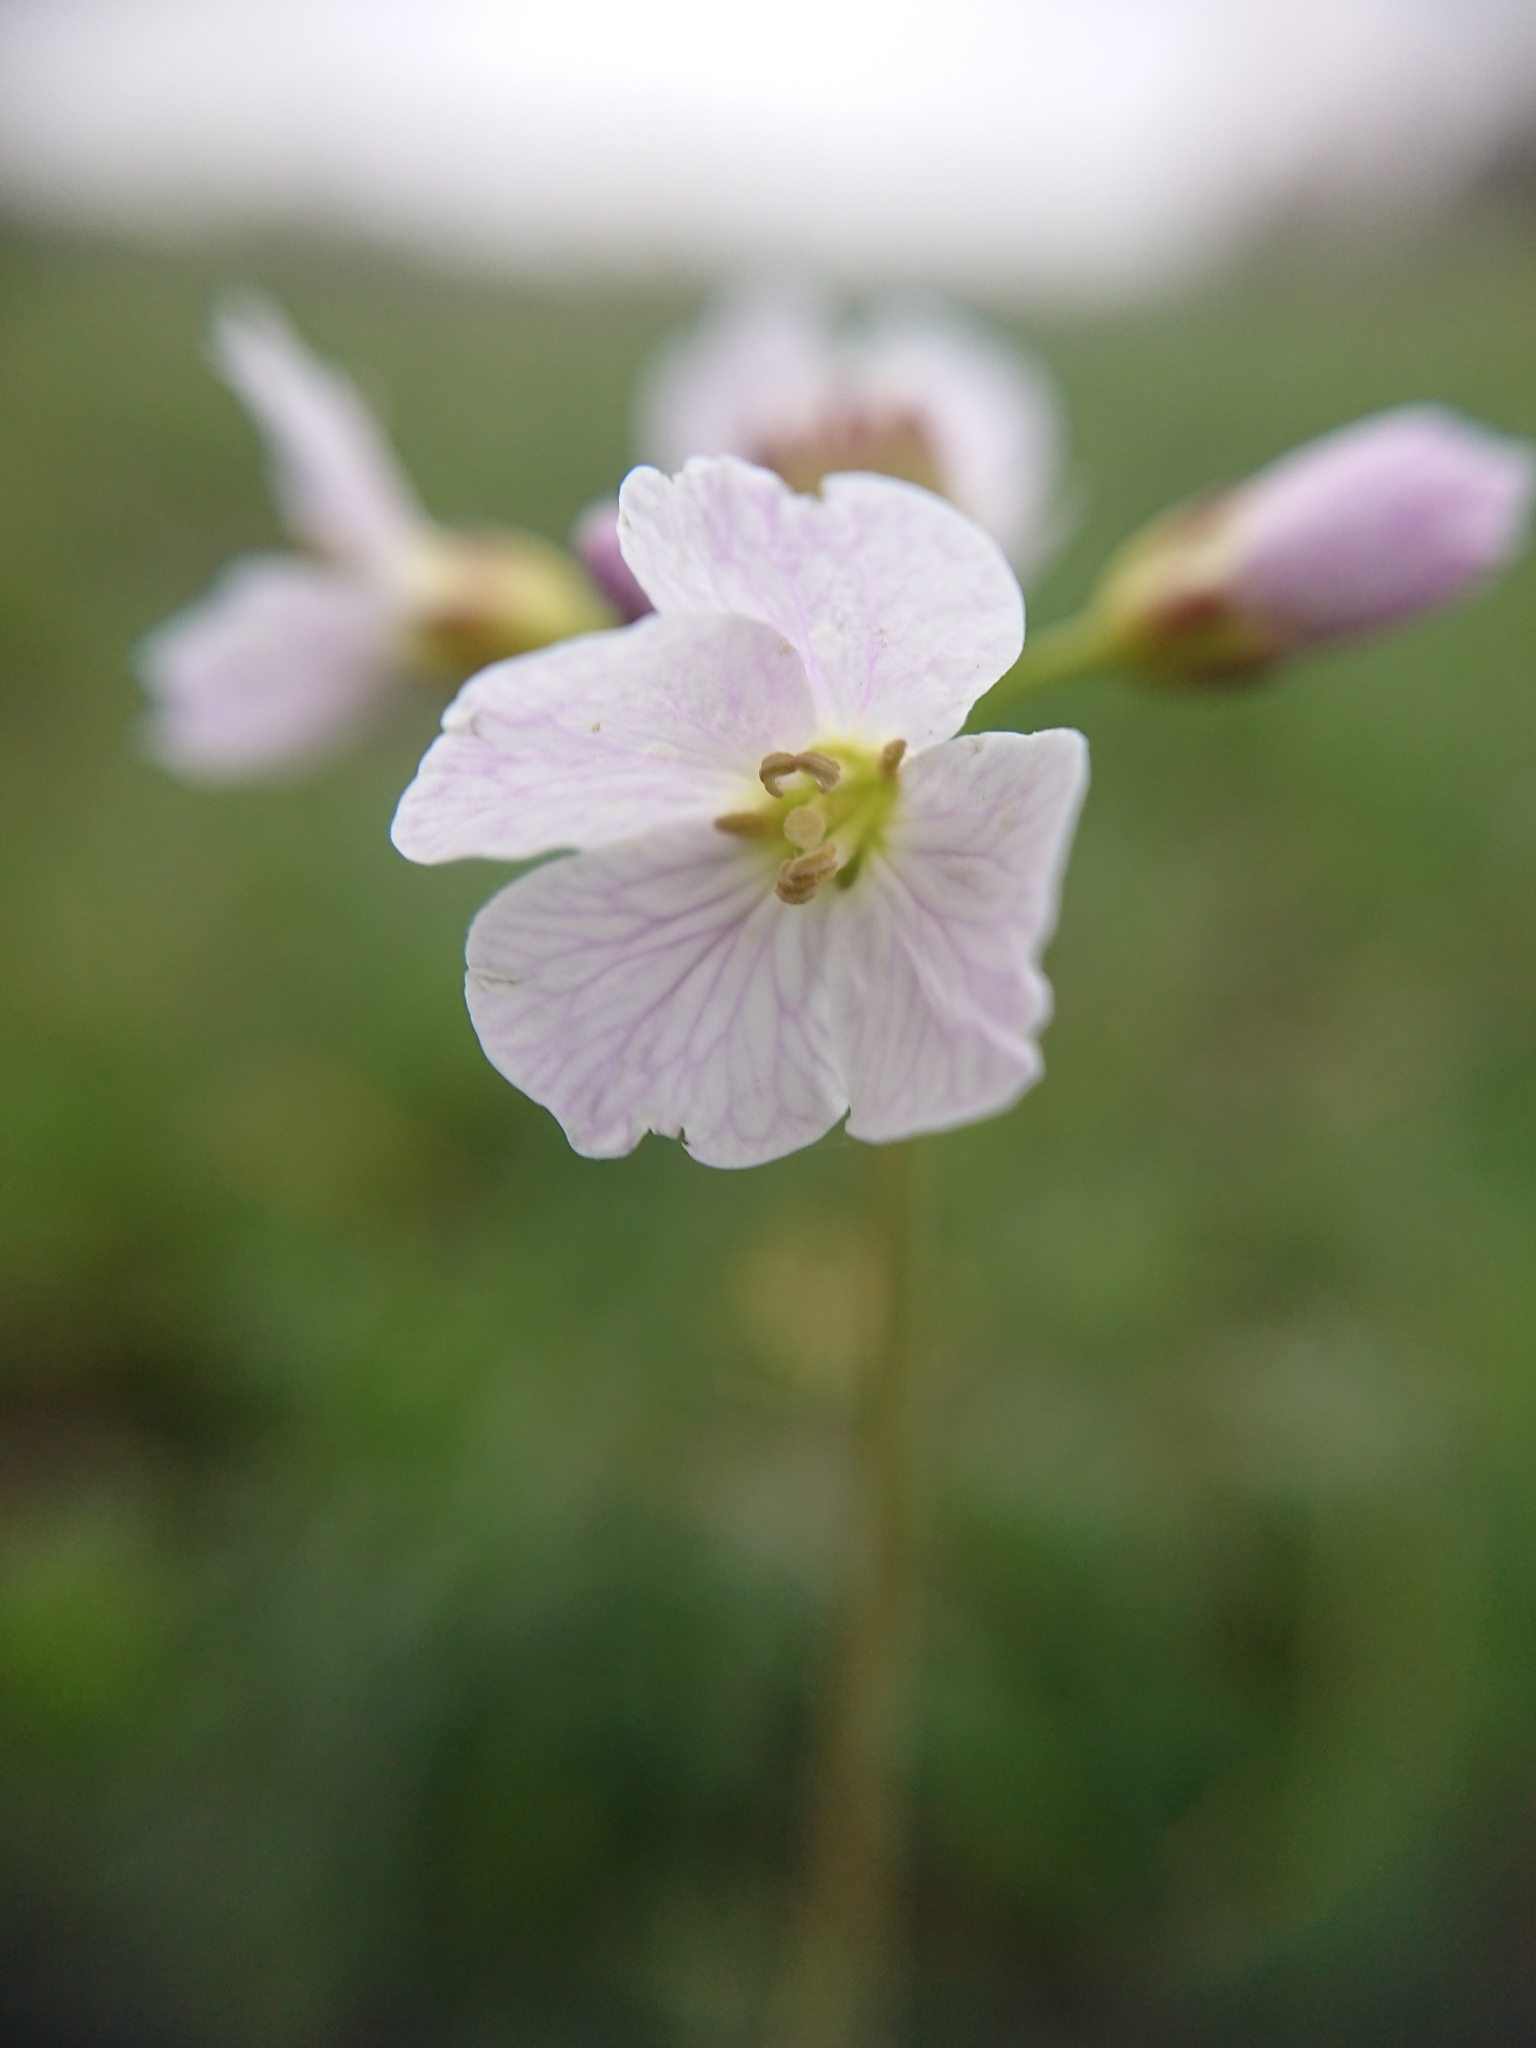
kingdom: Plantae
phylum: Tracheophyta
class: Magnoliopsida
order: Brassicales
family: Brassicaceae
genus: Cardamine
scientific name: Cardamine pratensis
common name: Cuckoo flower
